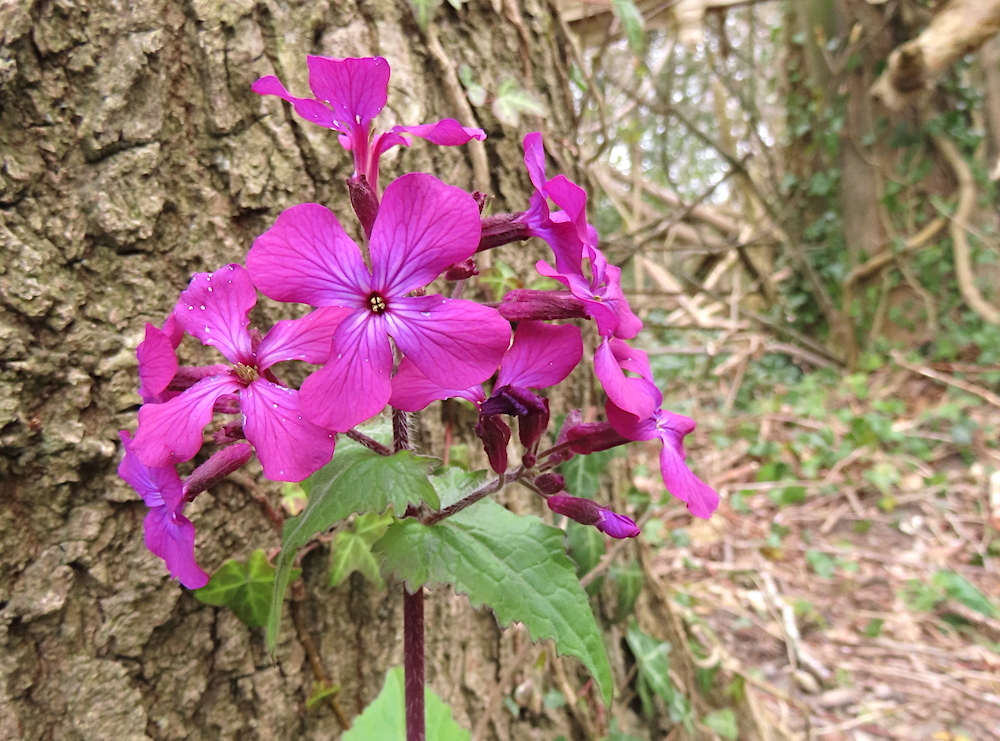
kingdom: Plantae
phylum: Tracheophyta
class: Magnoliopsida
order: Brassicales
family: Brassicaceae
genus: Lunaria
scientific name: Lunaria annua
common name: Honesty
